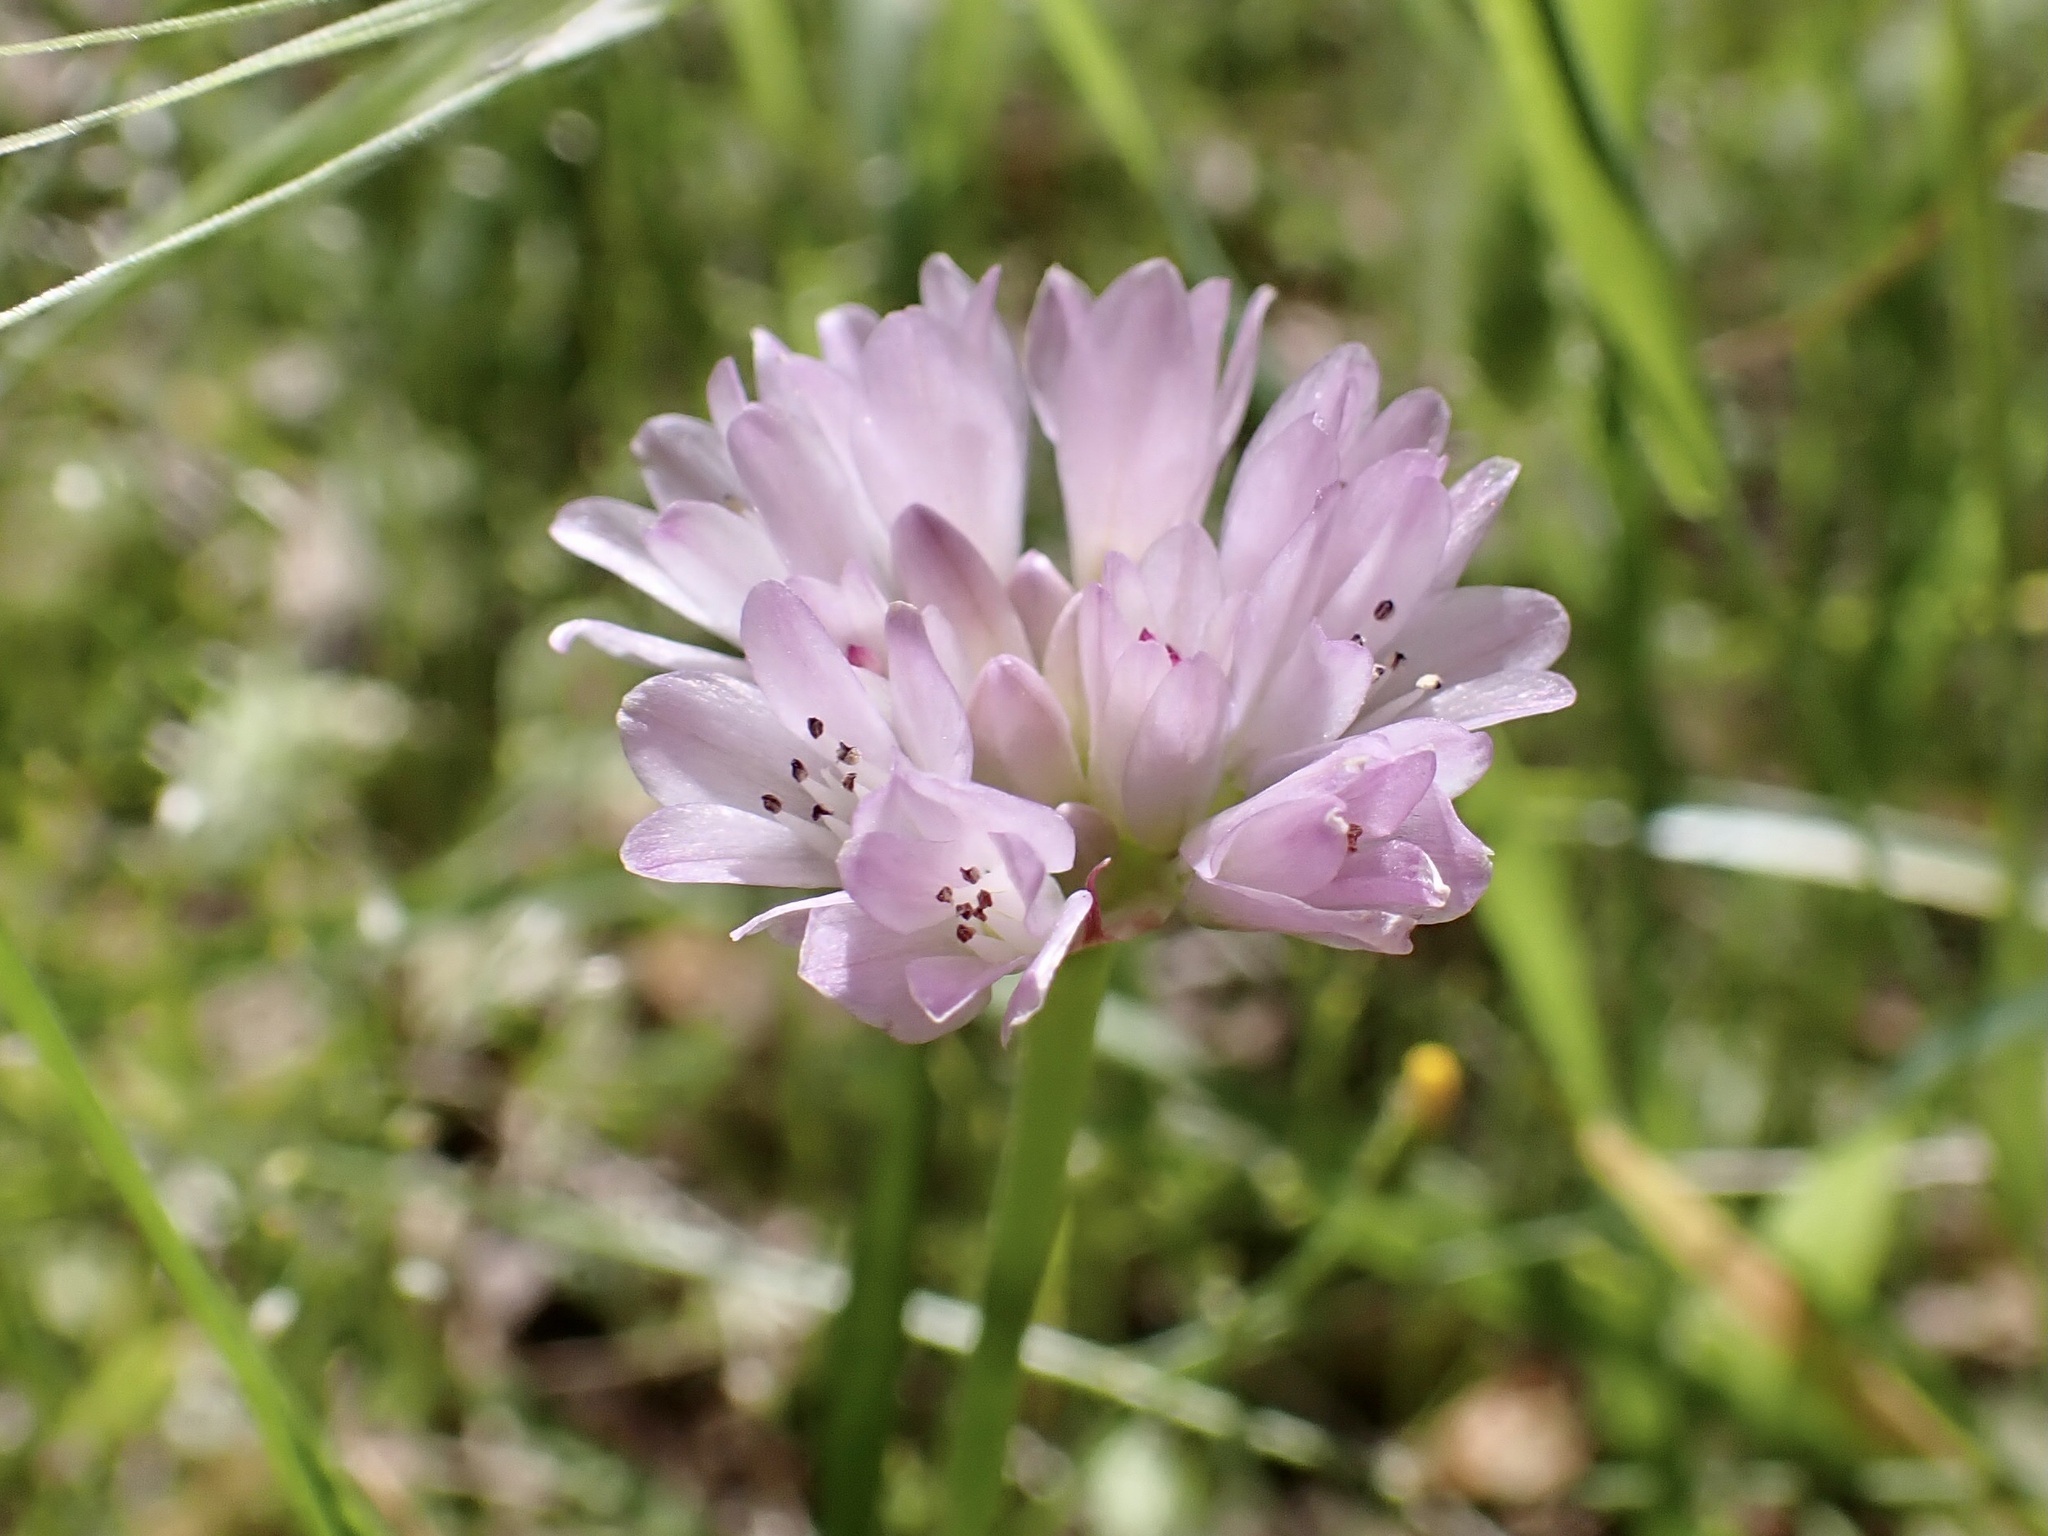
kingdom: Plantae
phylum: Tracheophyta
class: Liliopsida
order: Asparagales
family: Amaryllidaceae
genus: Allium
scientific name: Allium serra
